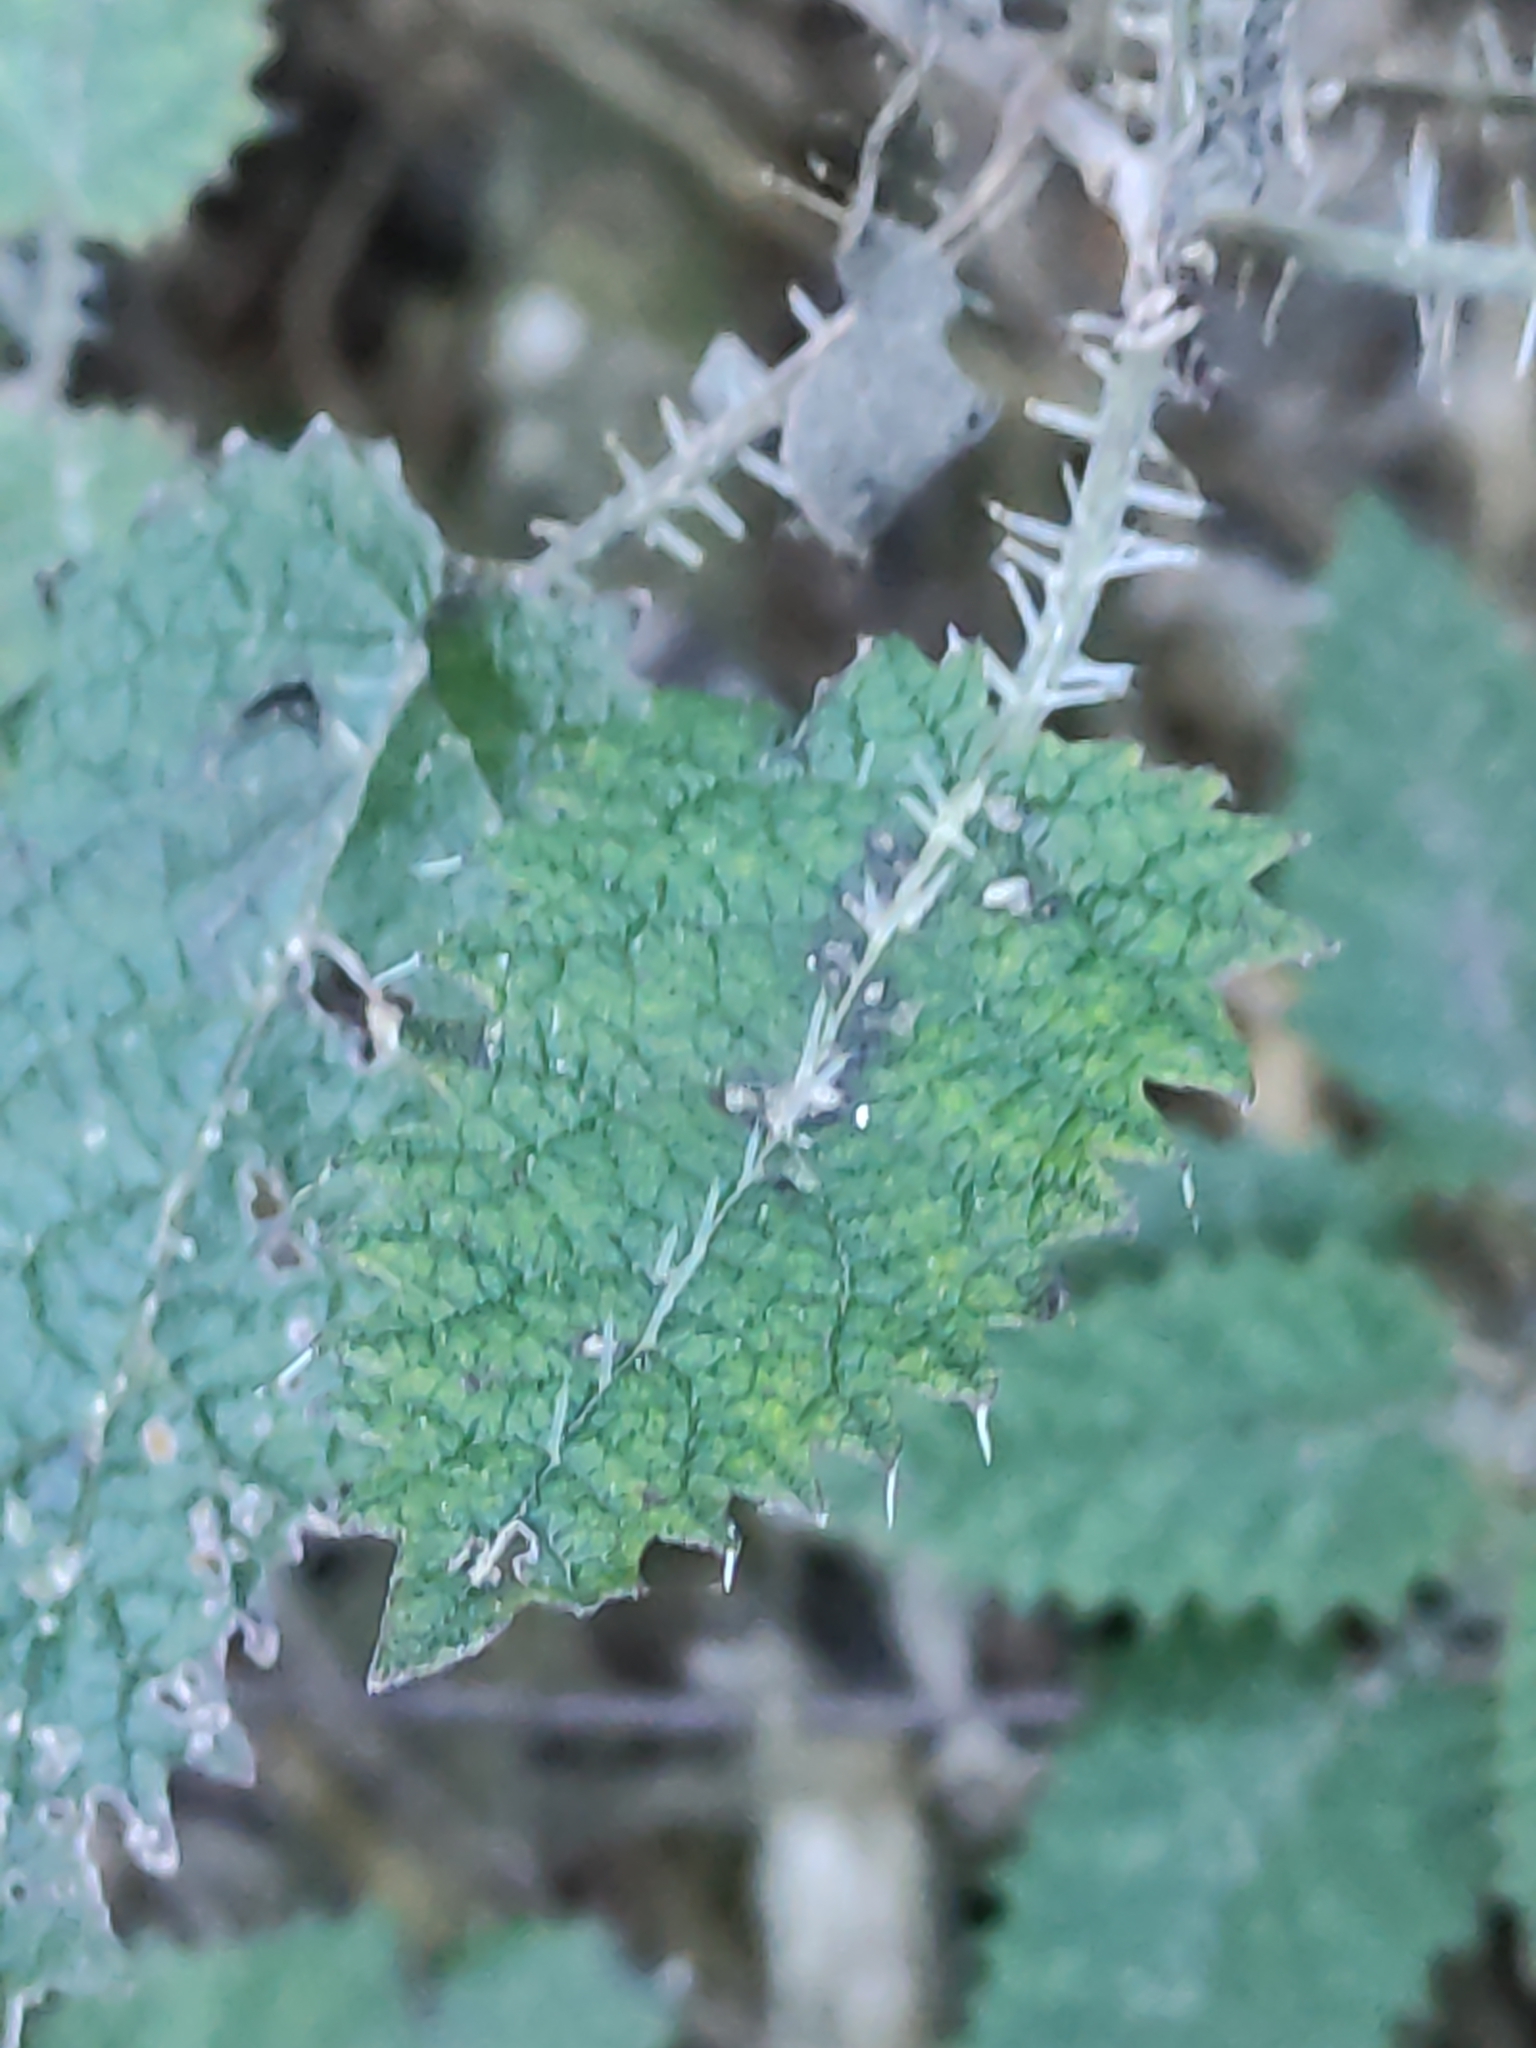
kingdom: Plantae
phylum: Tracheophyta
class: Magnoliopsida
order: Rosales
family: Urticaceae
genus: Urtica
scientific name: Urtica ferox
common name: Tree nettle
